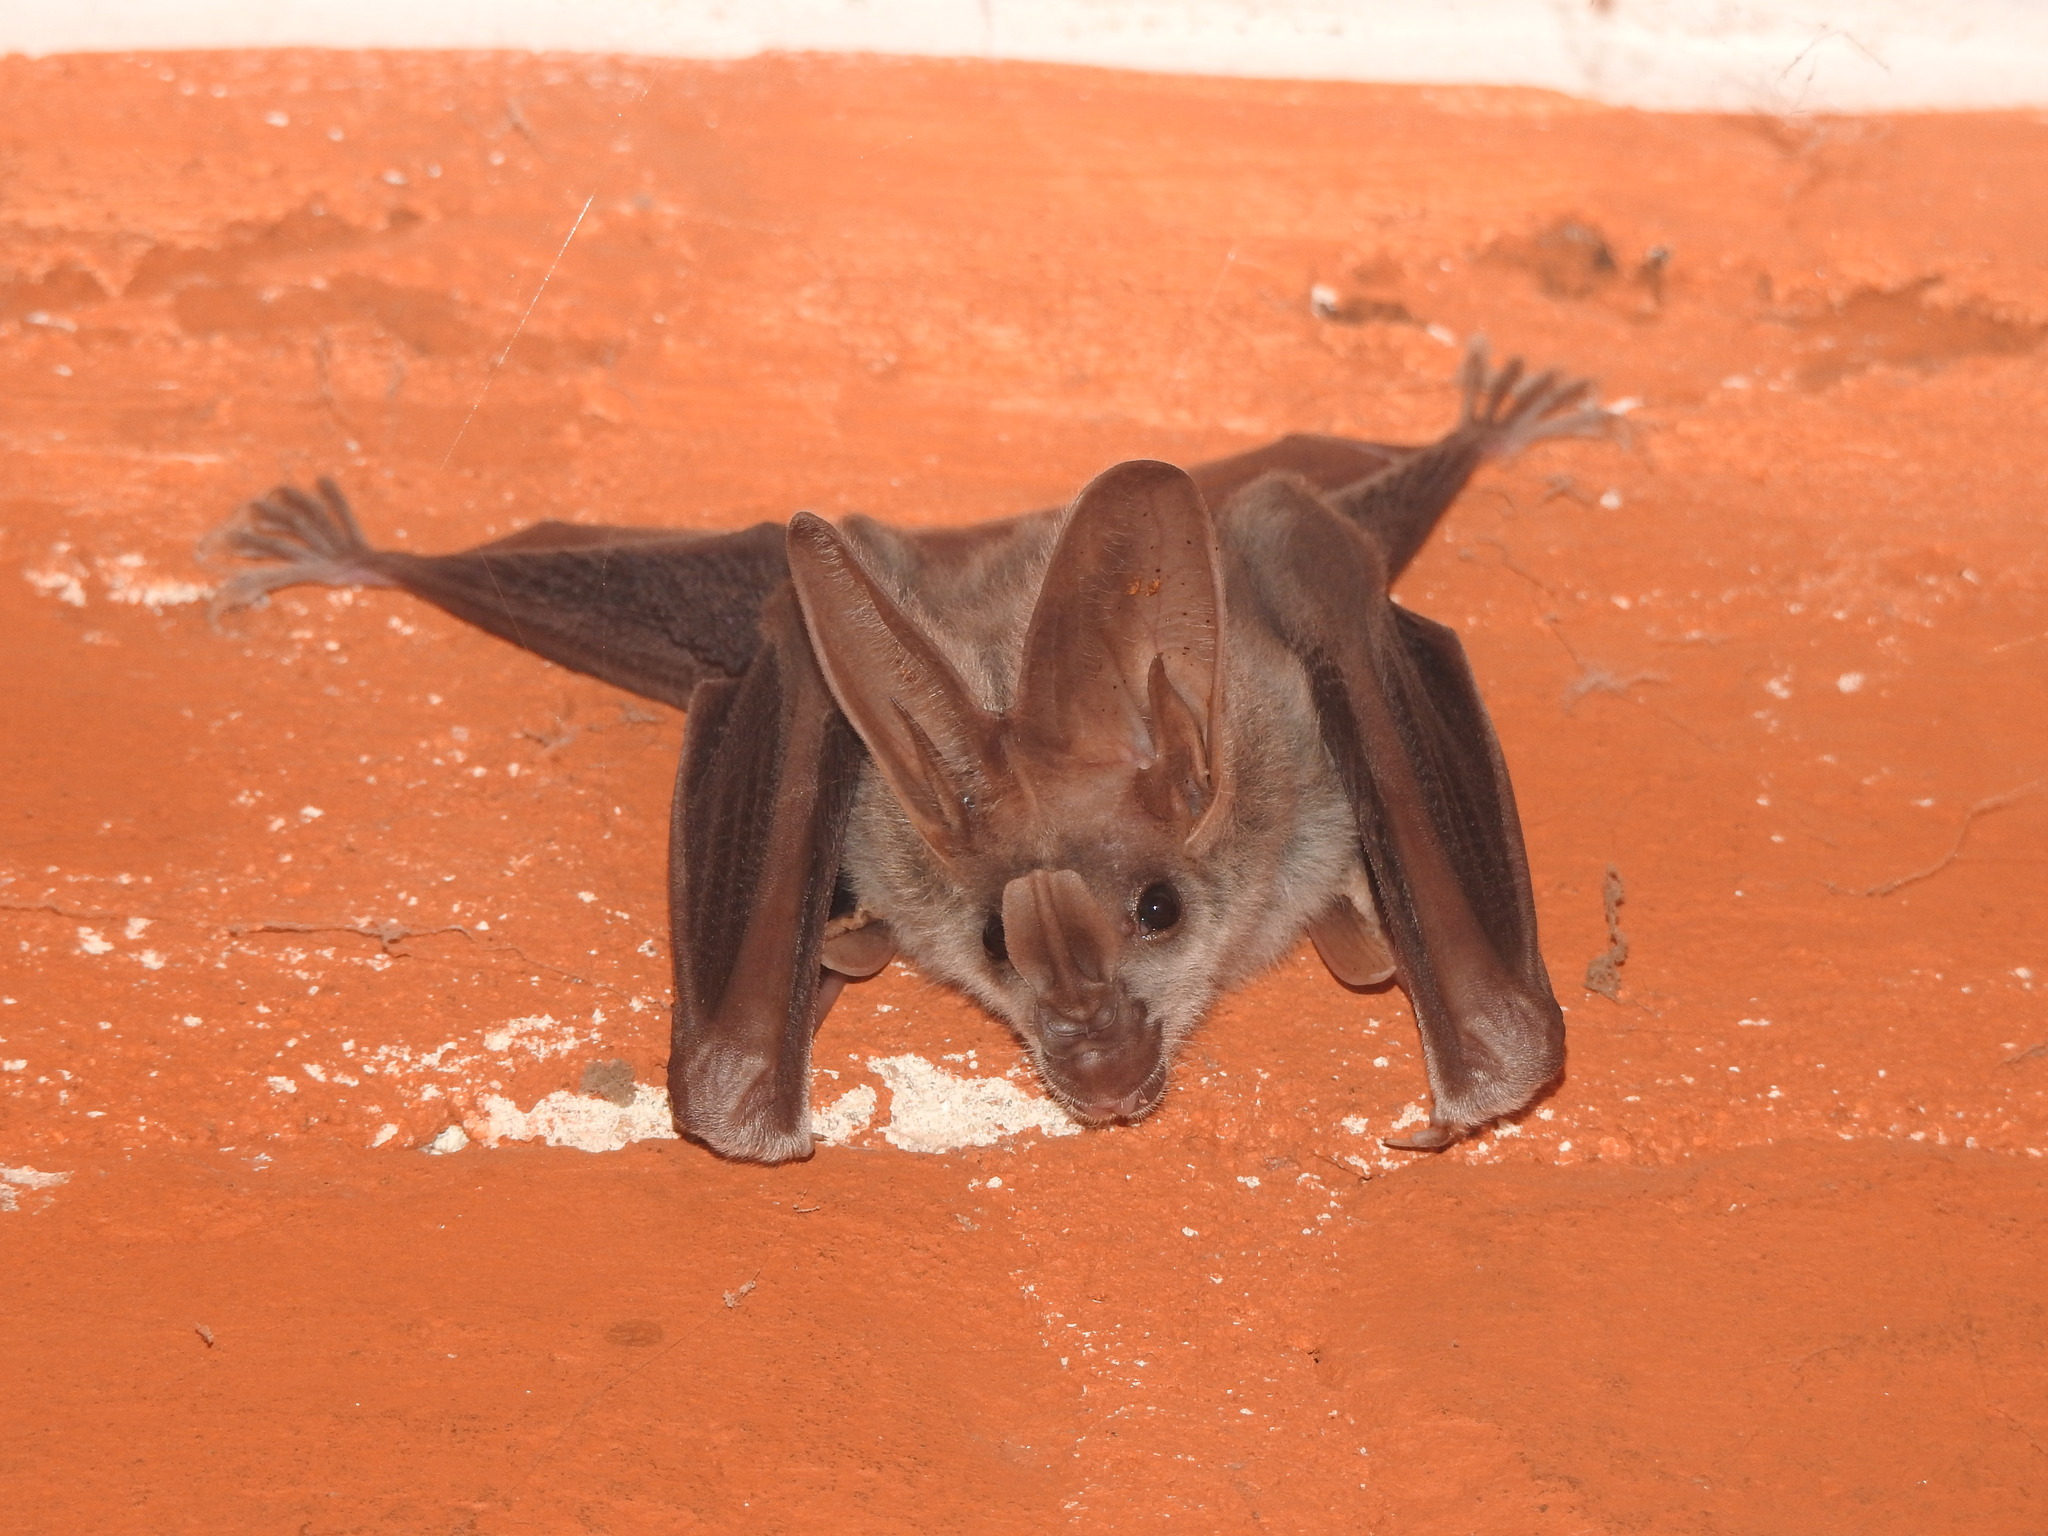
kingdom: Animalia
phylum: Chordata
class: Mammalia
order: Chiroptera
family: Megadermatidae
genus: Lyroderma
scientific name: Lyroderma lyra
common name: Greater false vampire bat
